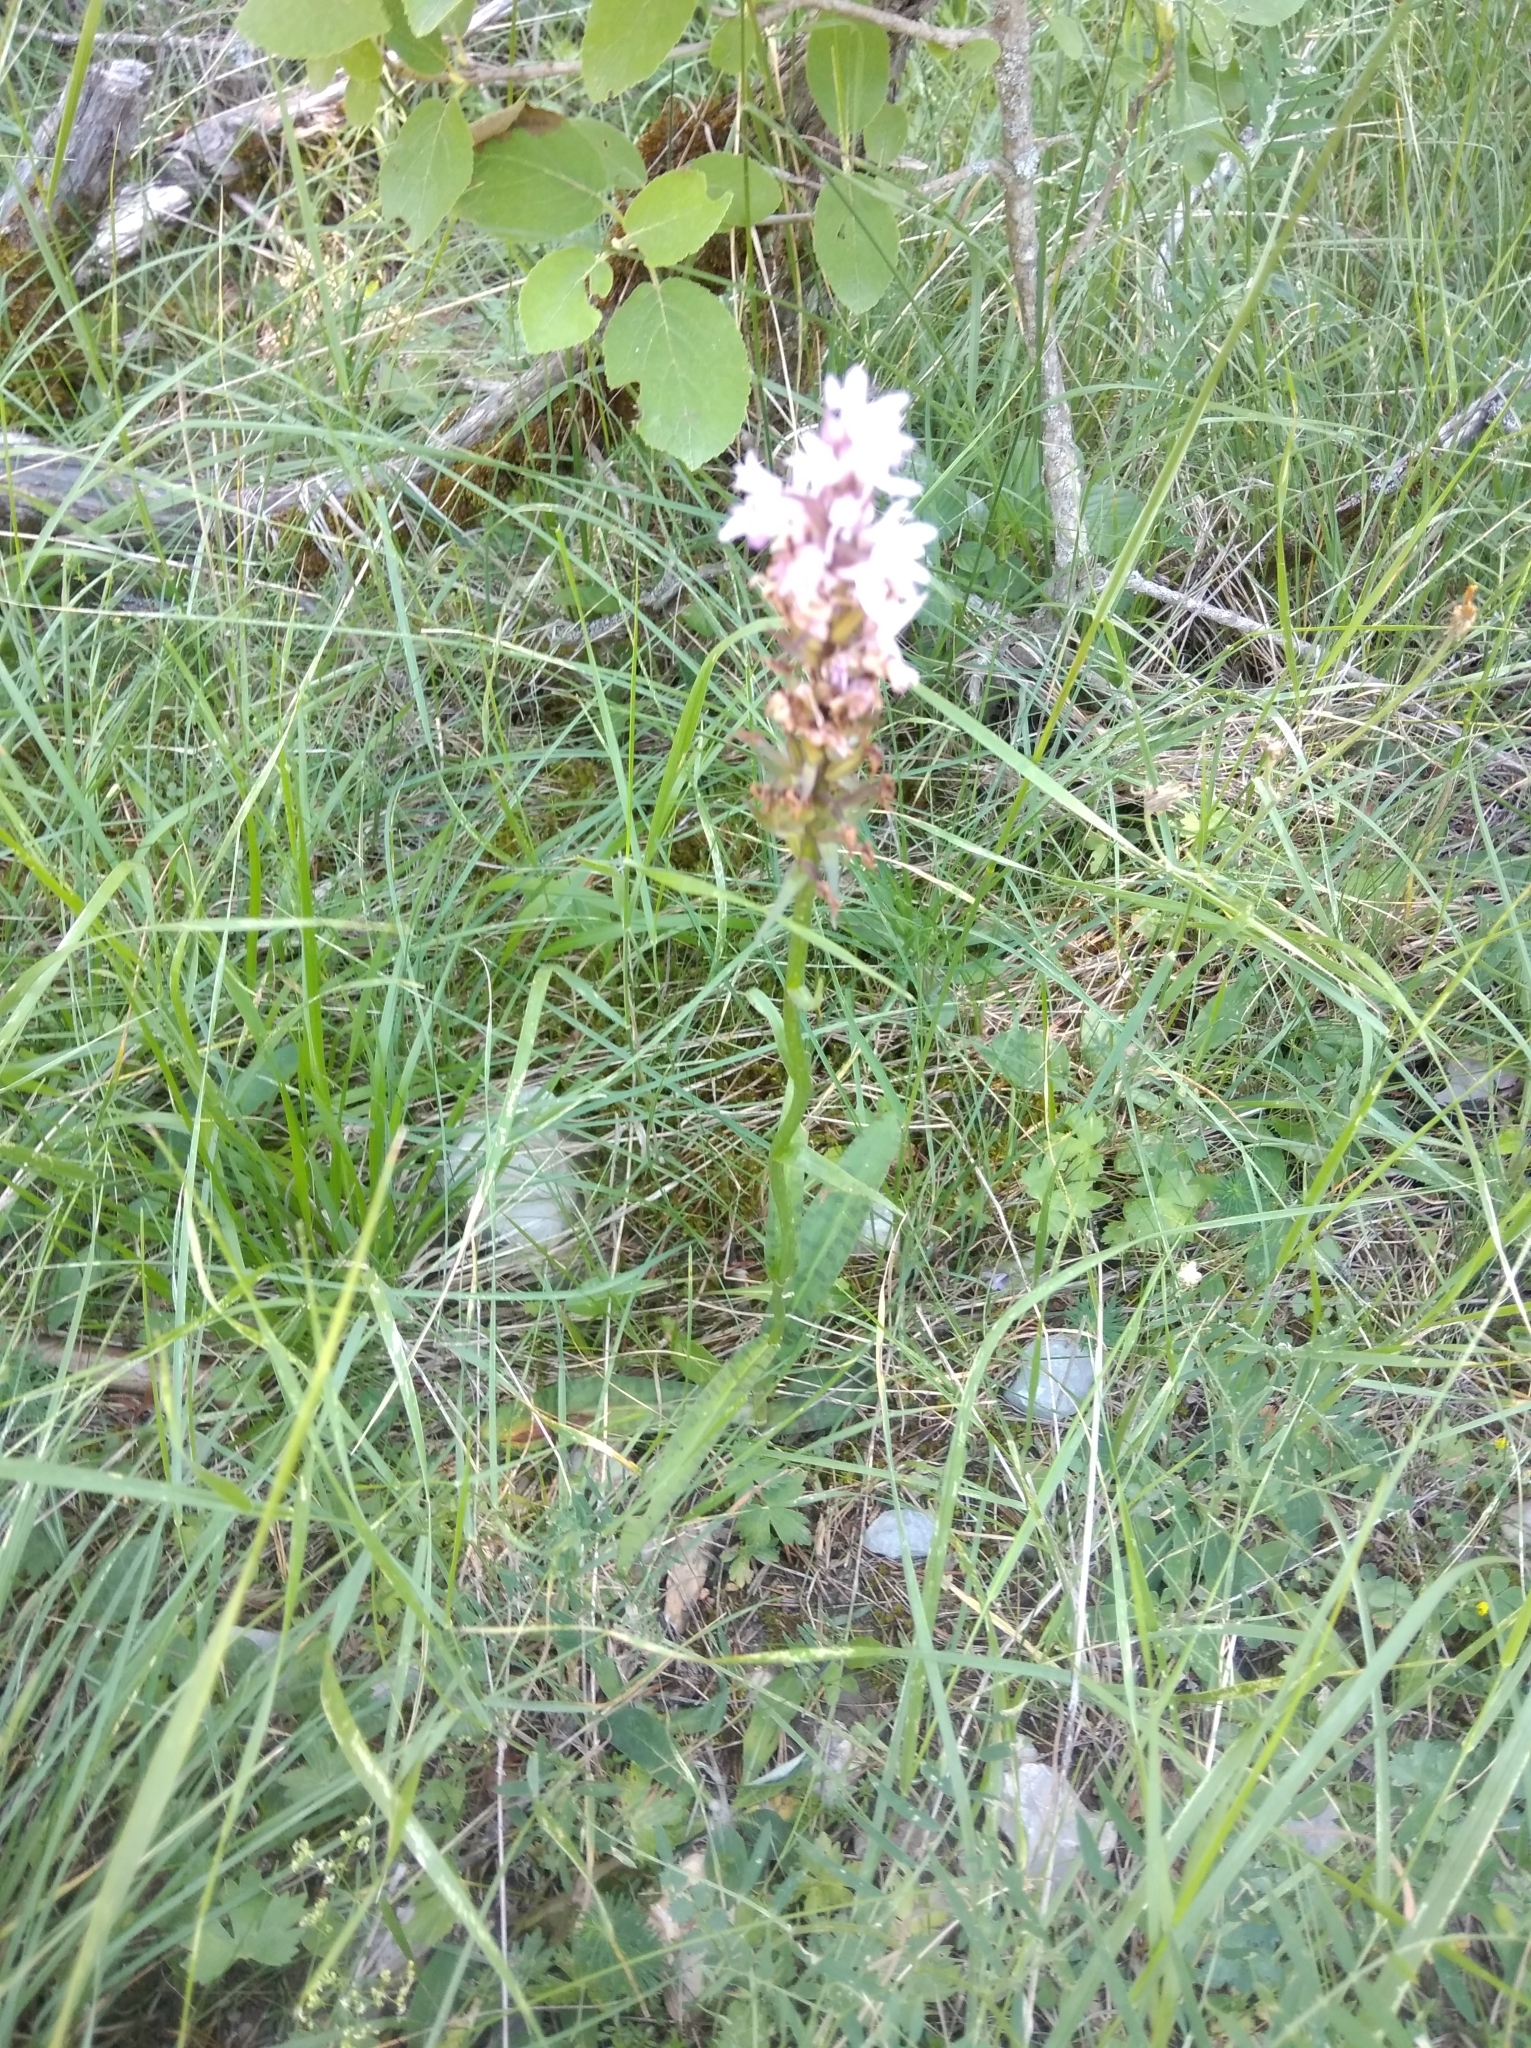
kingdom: Plantae
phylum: Tracheophyta
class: Liliopsida
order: Asparagales
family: Orchidaceae
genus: Dactylorhiza
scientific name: Dactylorhiza maculata
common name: Heath spotted-orchid
